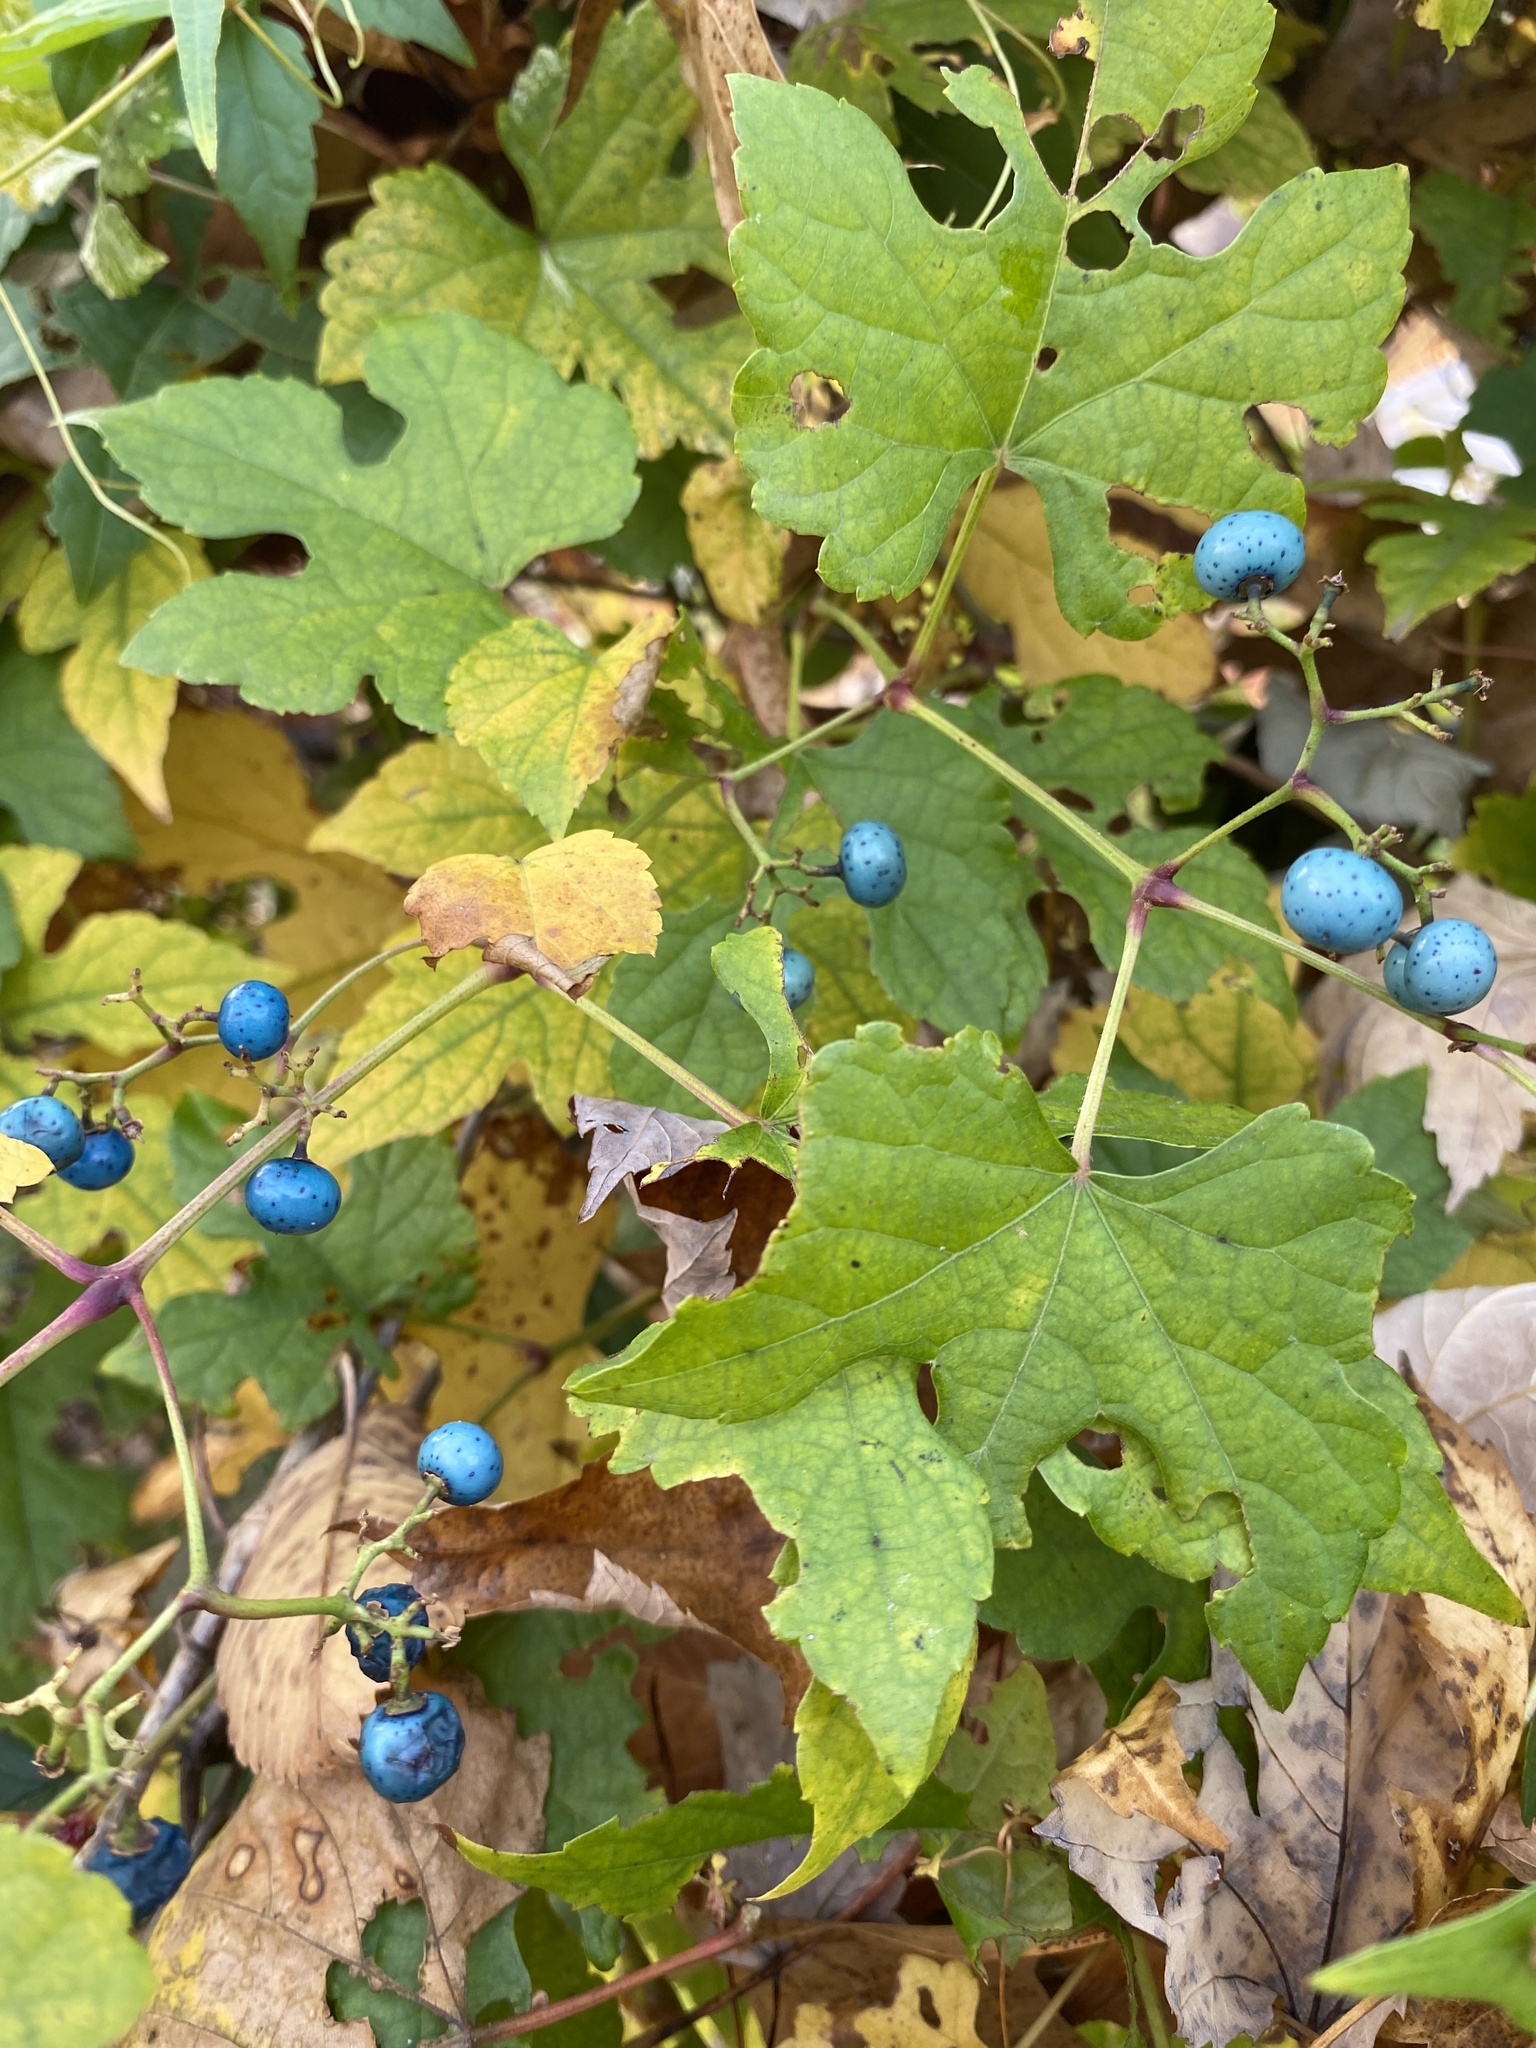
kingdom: Plantae
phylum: Tracheophyta
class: Magnoliopsida
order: Vitales
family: Vitaceae
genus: Ampelopsis
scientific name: Ampelopsis glandulosa
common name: Amur peppervine
